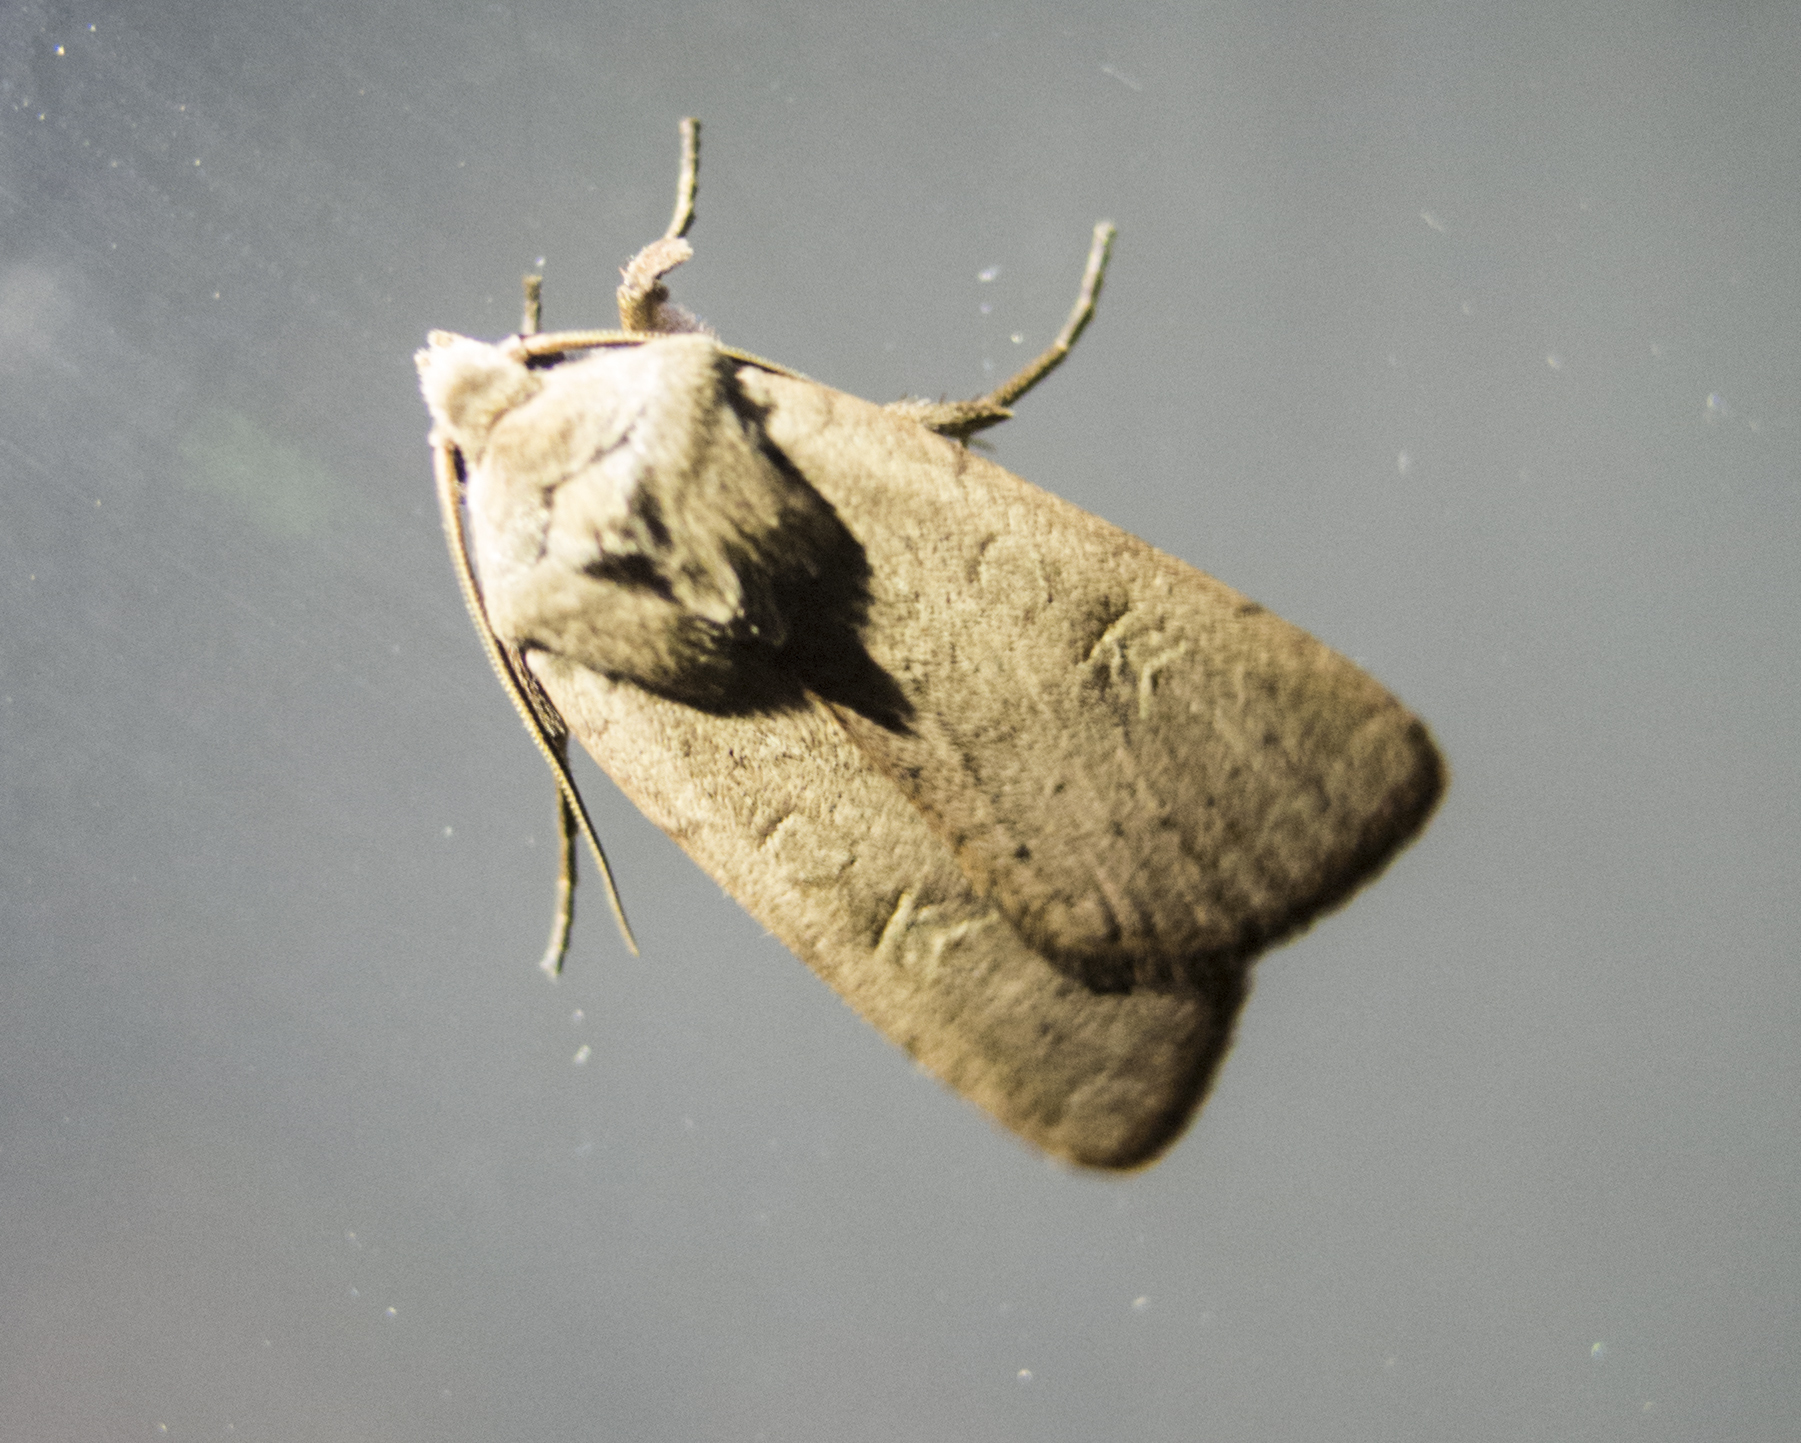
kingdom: Animalia
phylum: Arthropoda
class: Insecta
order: Lepidoptera
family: Noctuidae
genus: Xestia
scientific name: Xestia xanthographa
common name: Square-spot rustic
